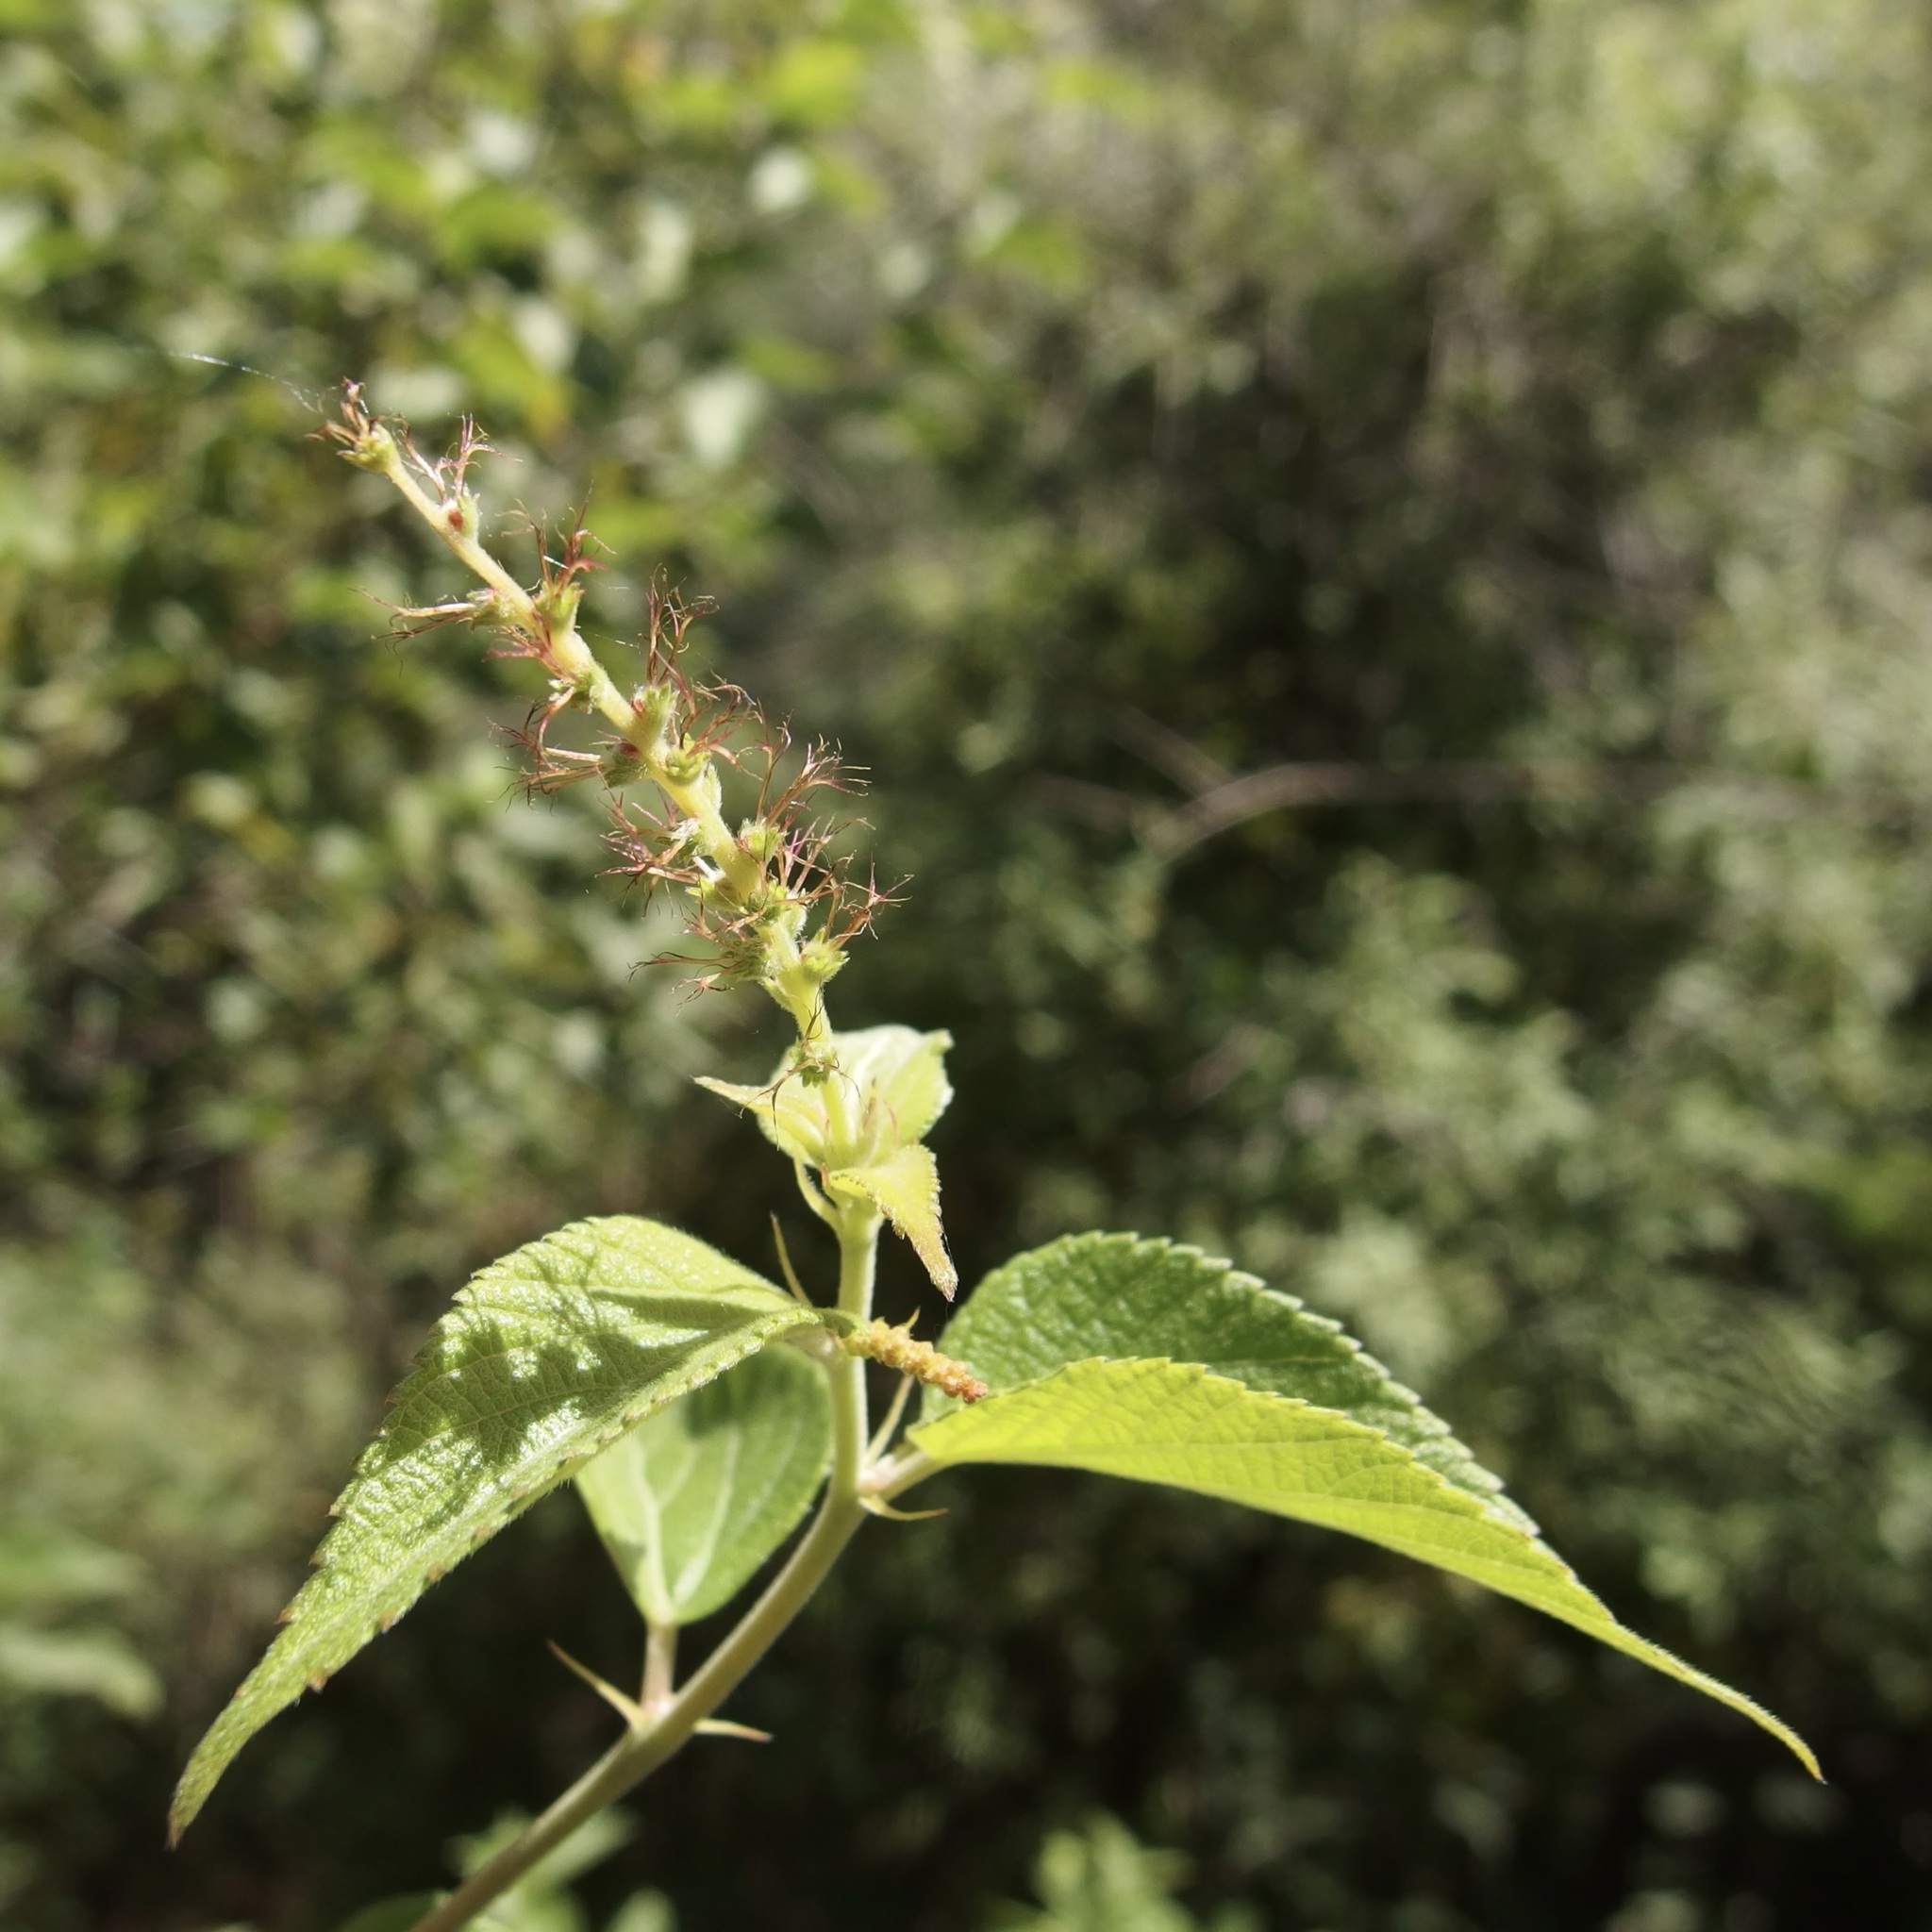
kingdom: Plantae
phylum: Tracheophyta
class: Magnoliopsida
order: Malpighiales
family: Euphorbiaceae
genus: Acalypha
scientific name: Acalypha papillosa
